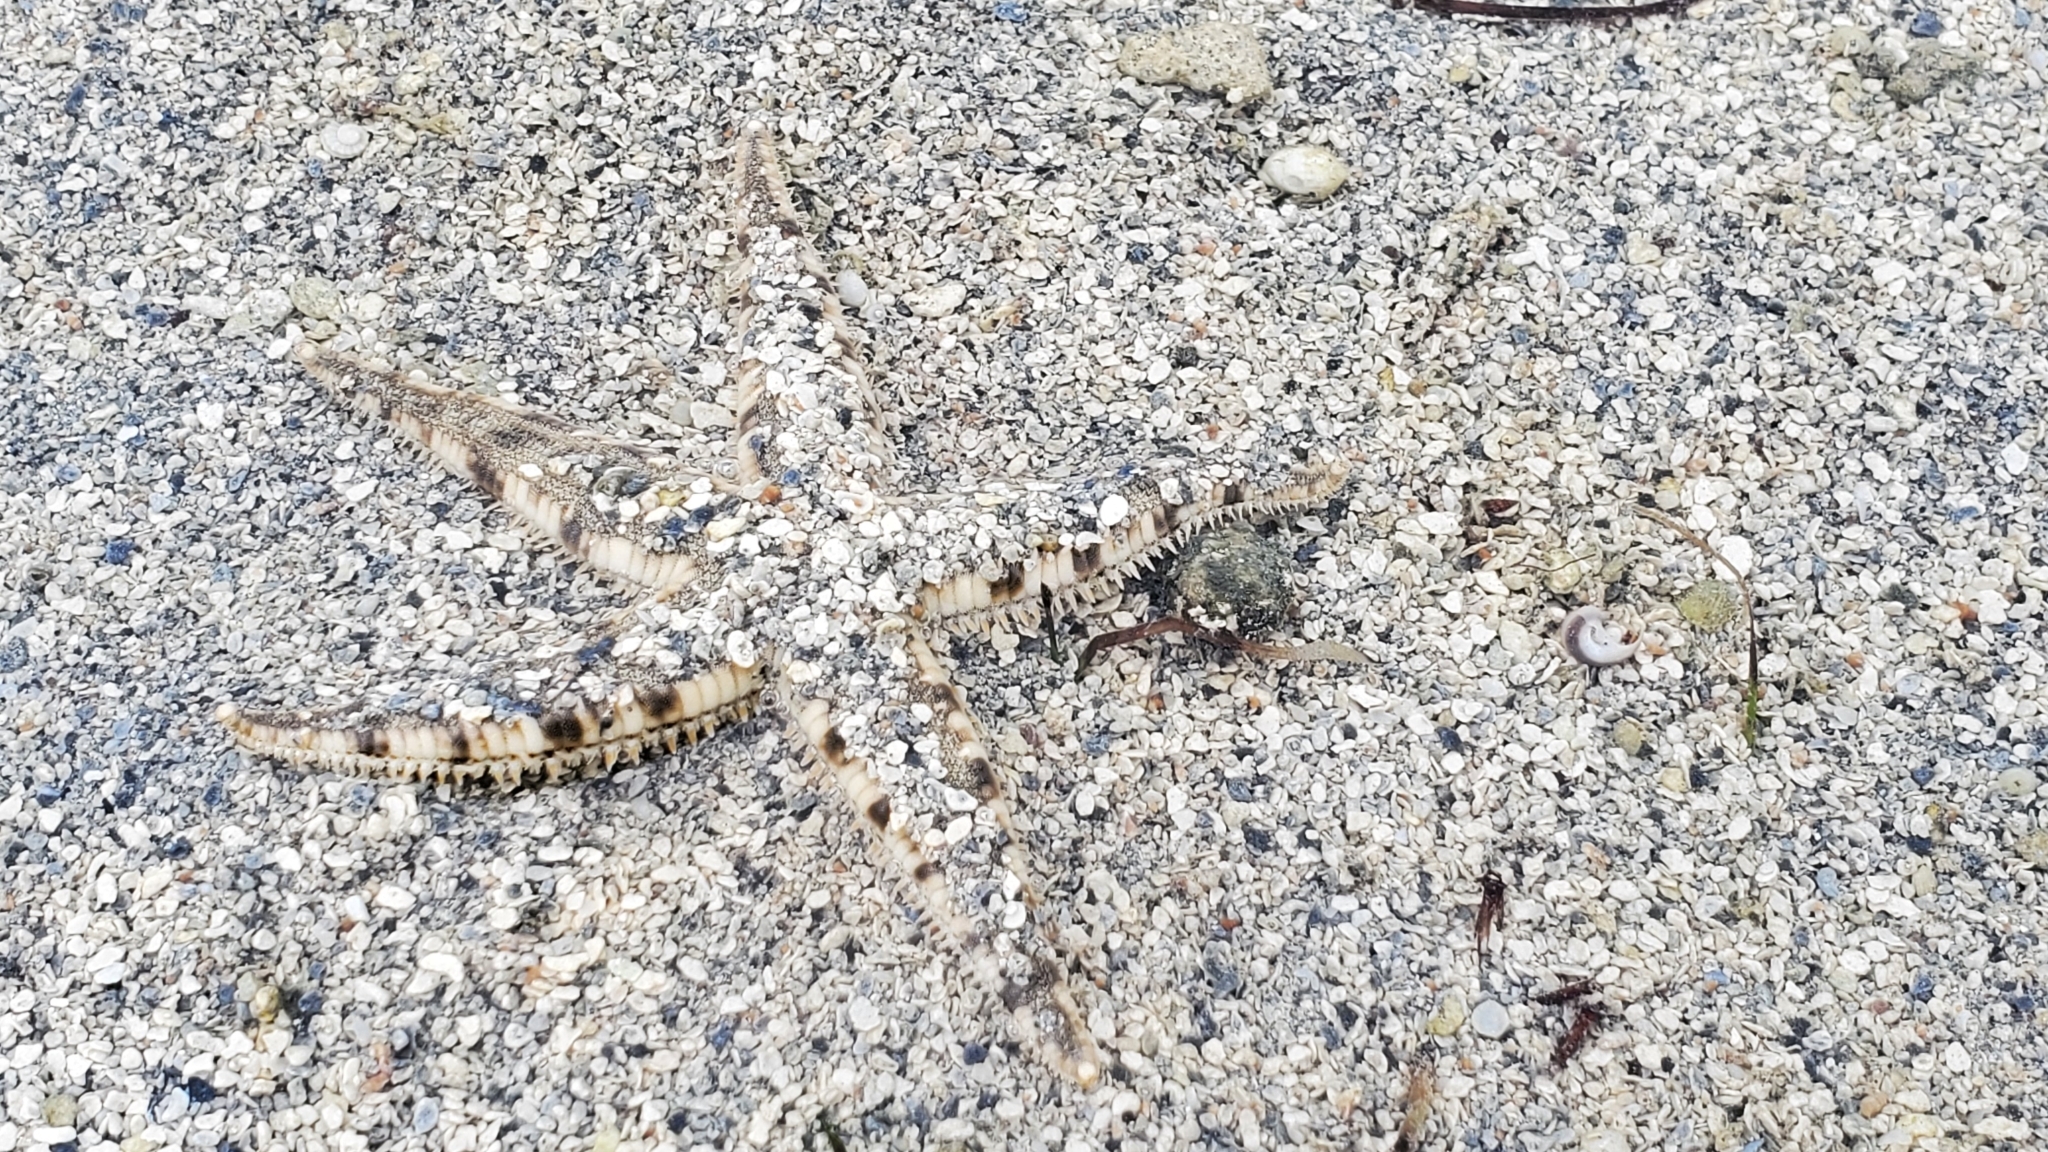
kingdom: Animalia
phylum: Echinodermata
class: Asteroidea
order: Valvatida
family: Archasteridae
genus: Archaster
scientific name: Archaster typicus
